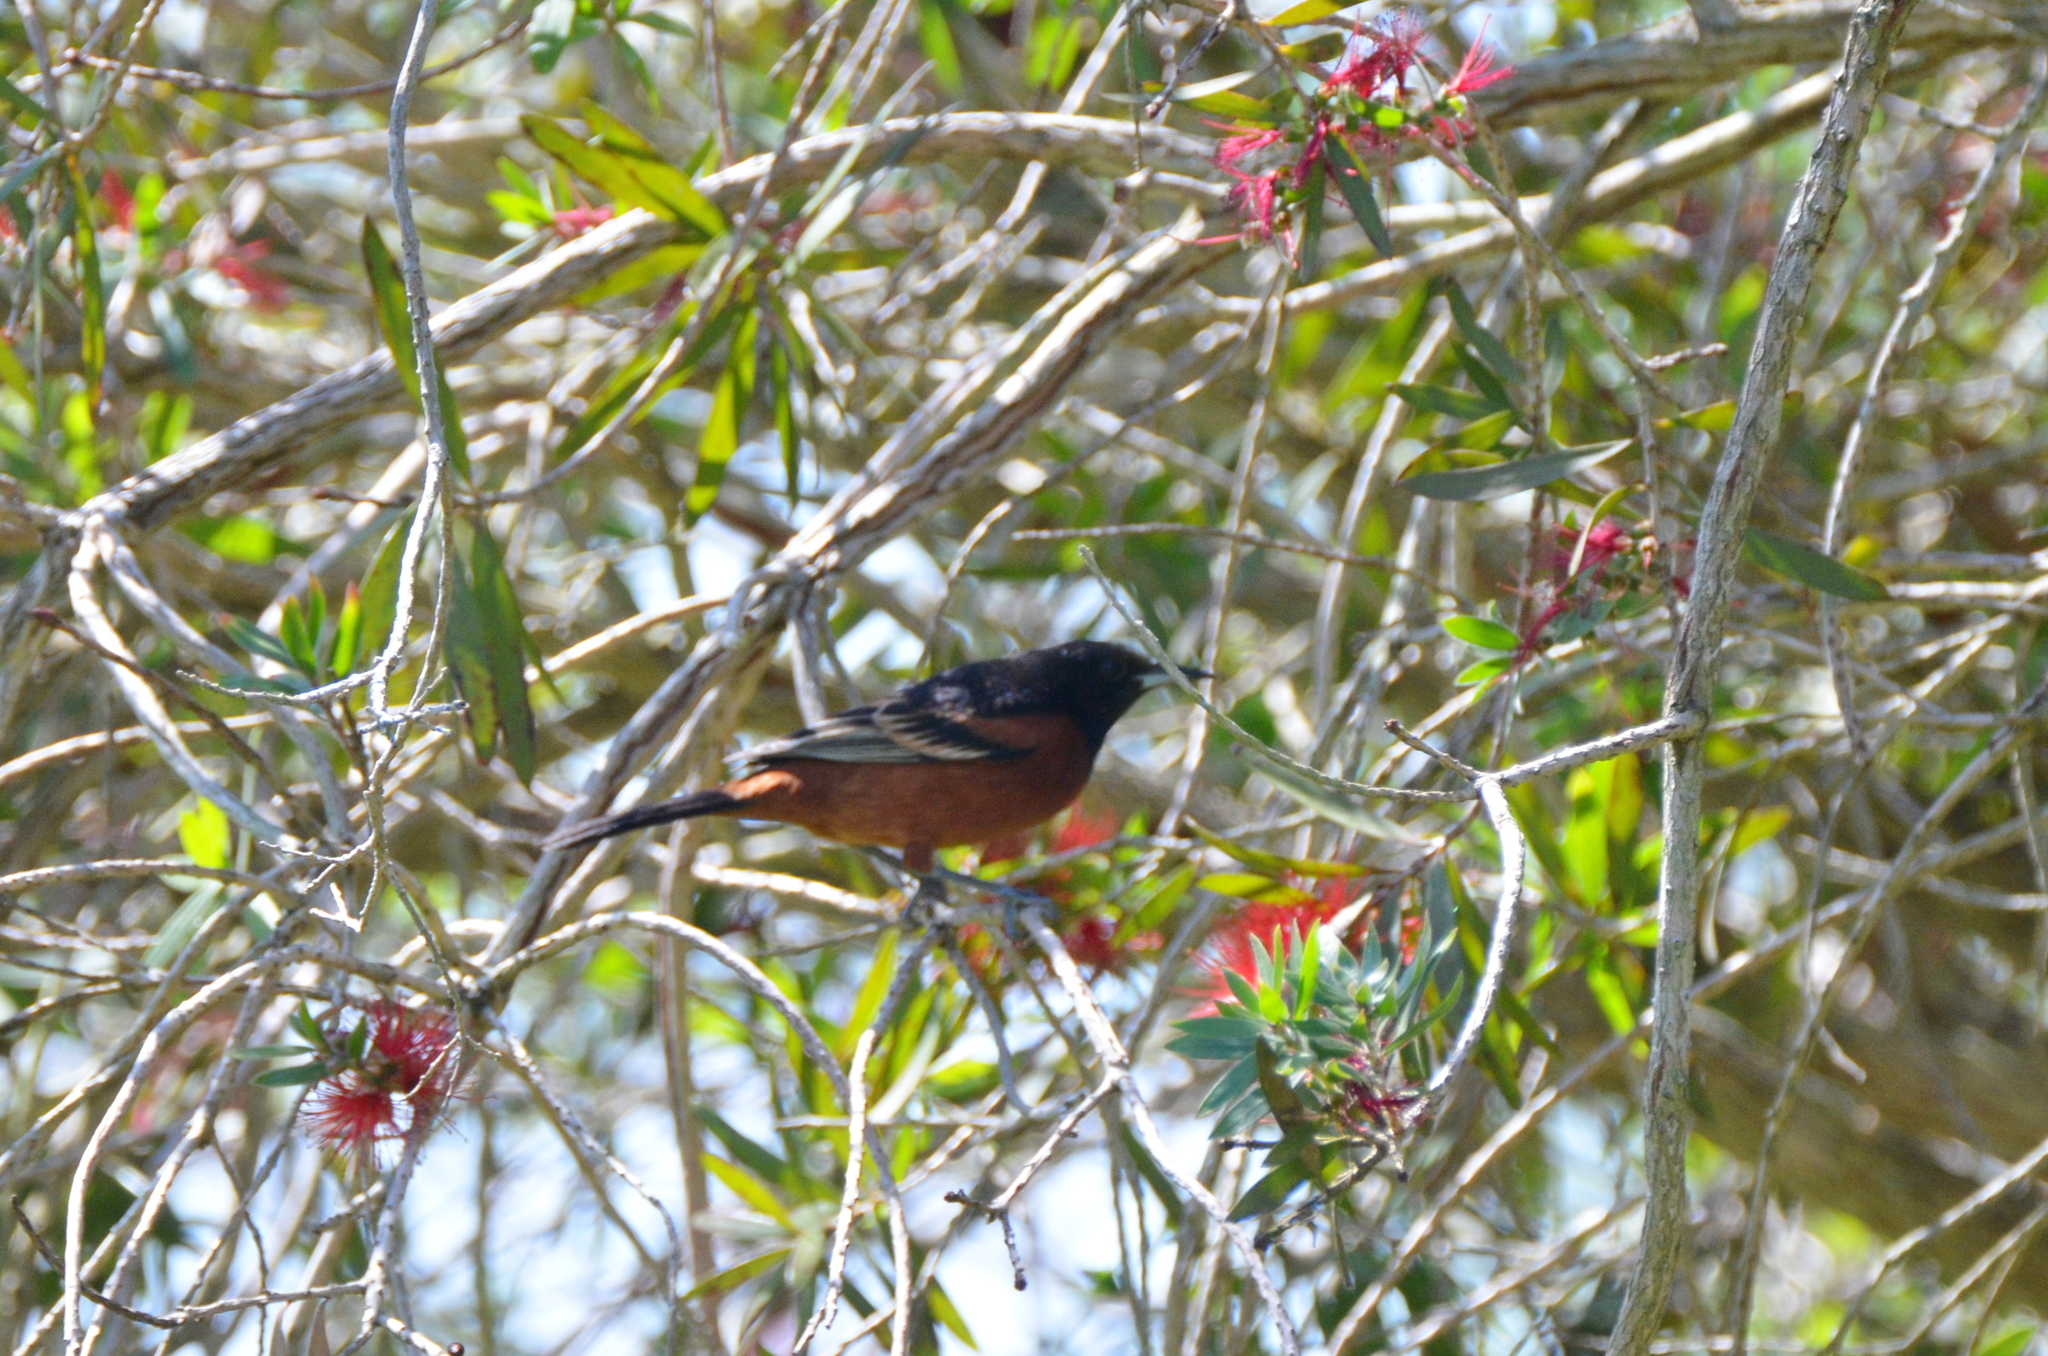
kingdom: Animalia
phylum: Chordata
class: Aves
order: Passeriformes
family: Icteridae
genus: Icterus
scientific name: Icterus spurius
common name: Orchard oriole
